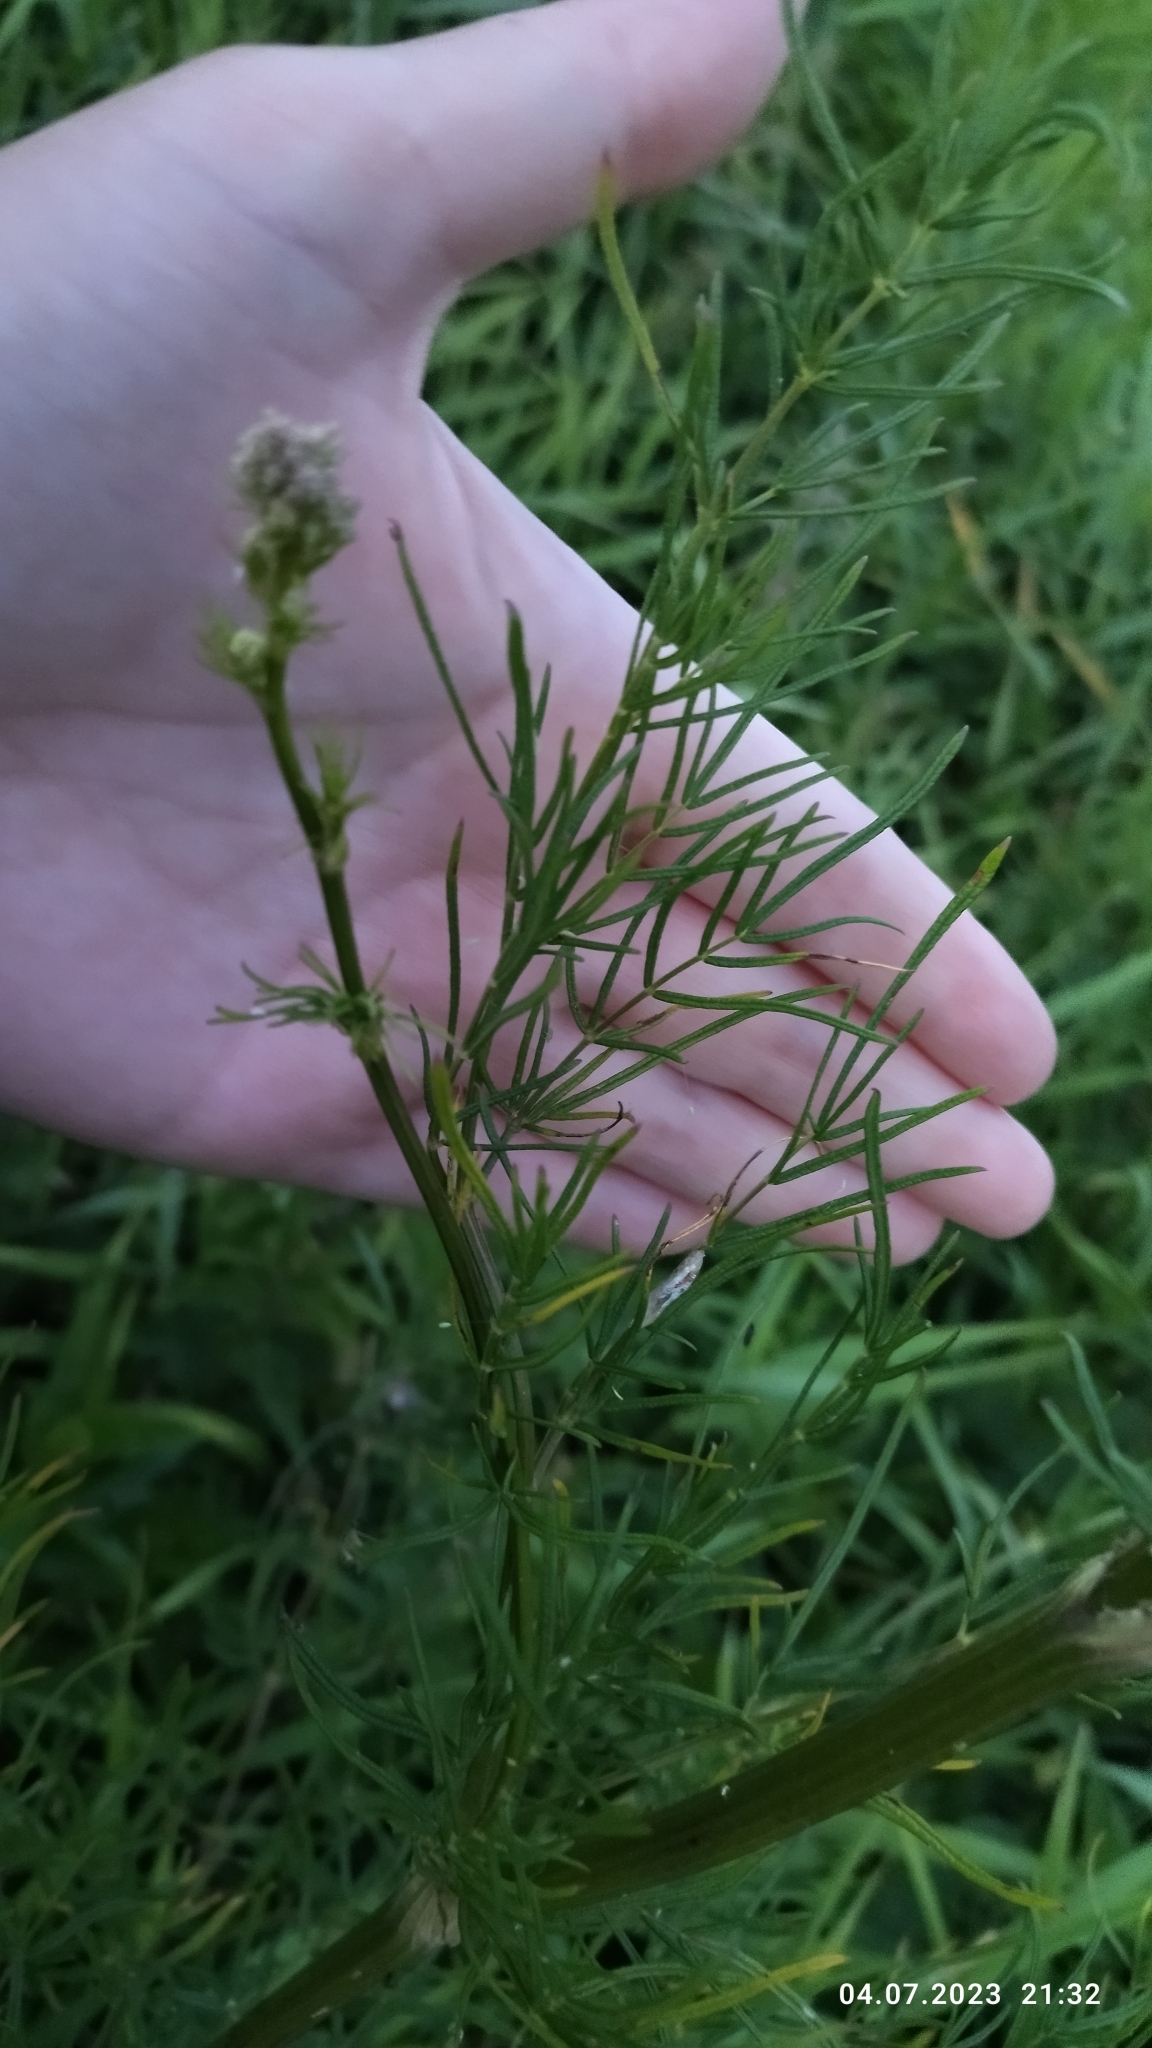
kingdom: Plantae
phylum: Tracheophyta
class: Magnoliopsida
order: Ranunculales
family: Ranunculaceae
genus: Thalictrum
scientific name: Thalictrum lucidum
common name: Shining meadow-rue
